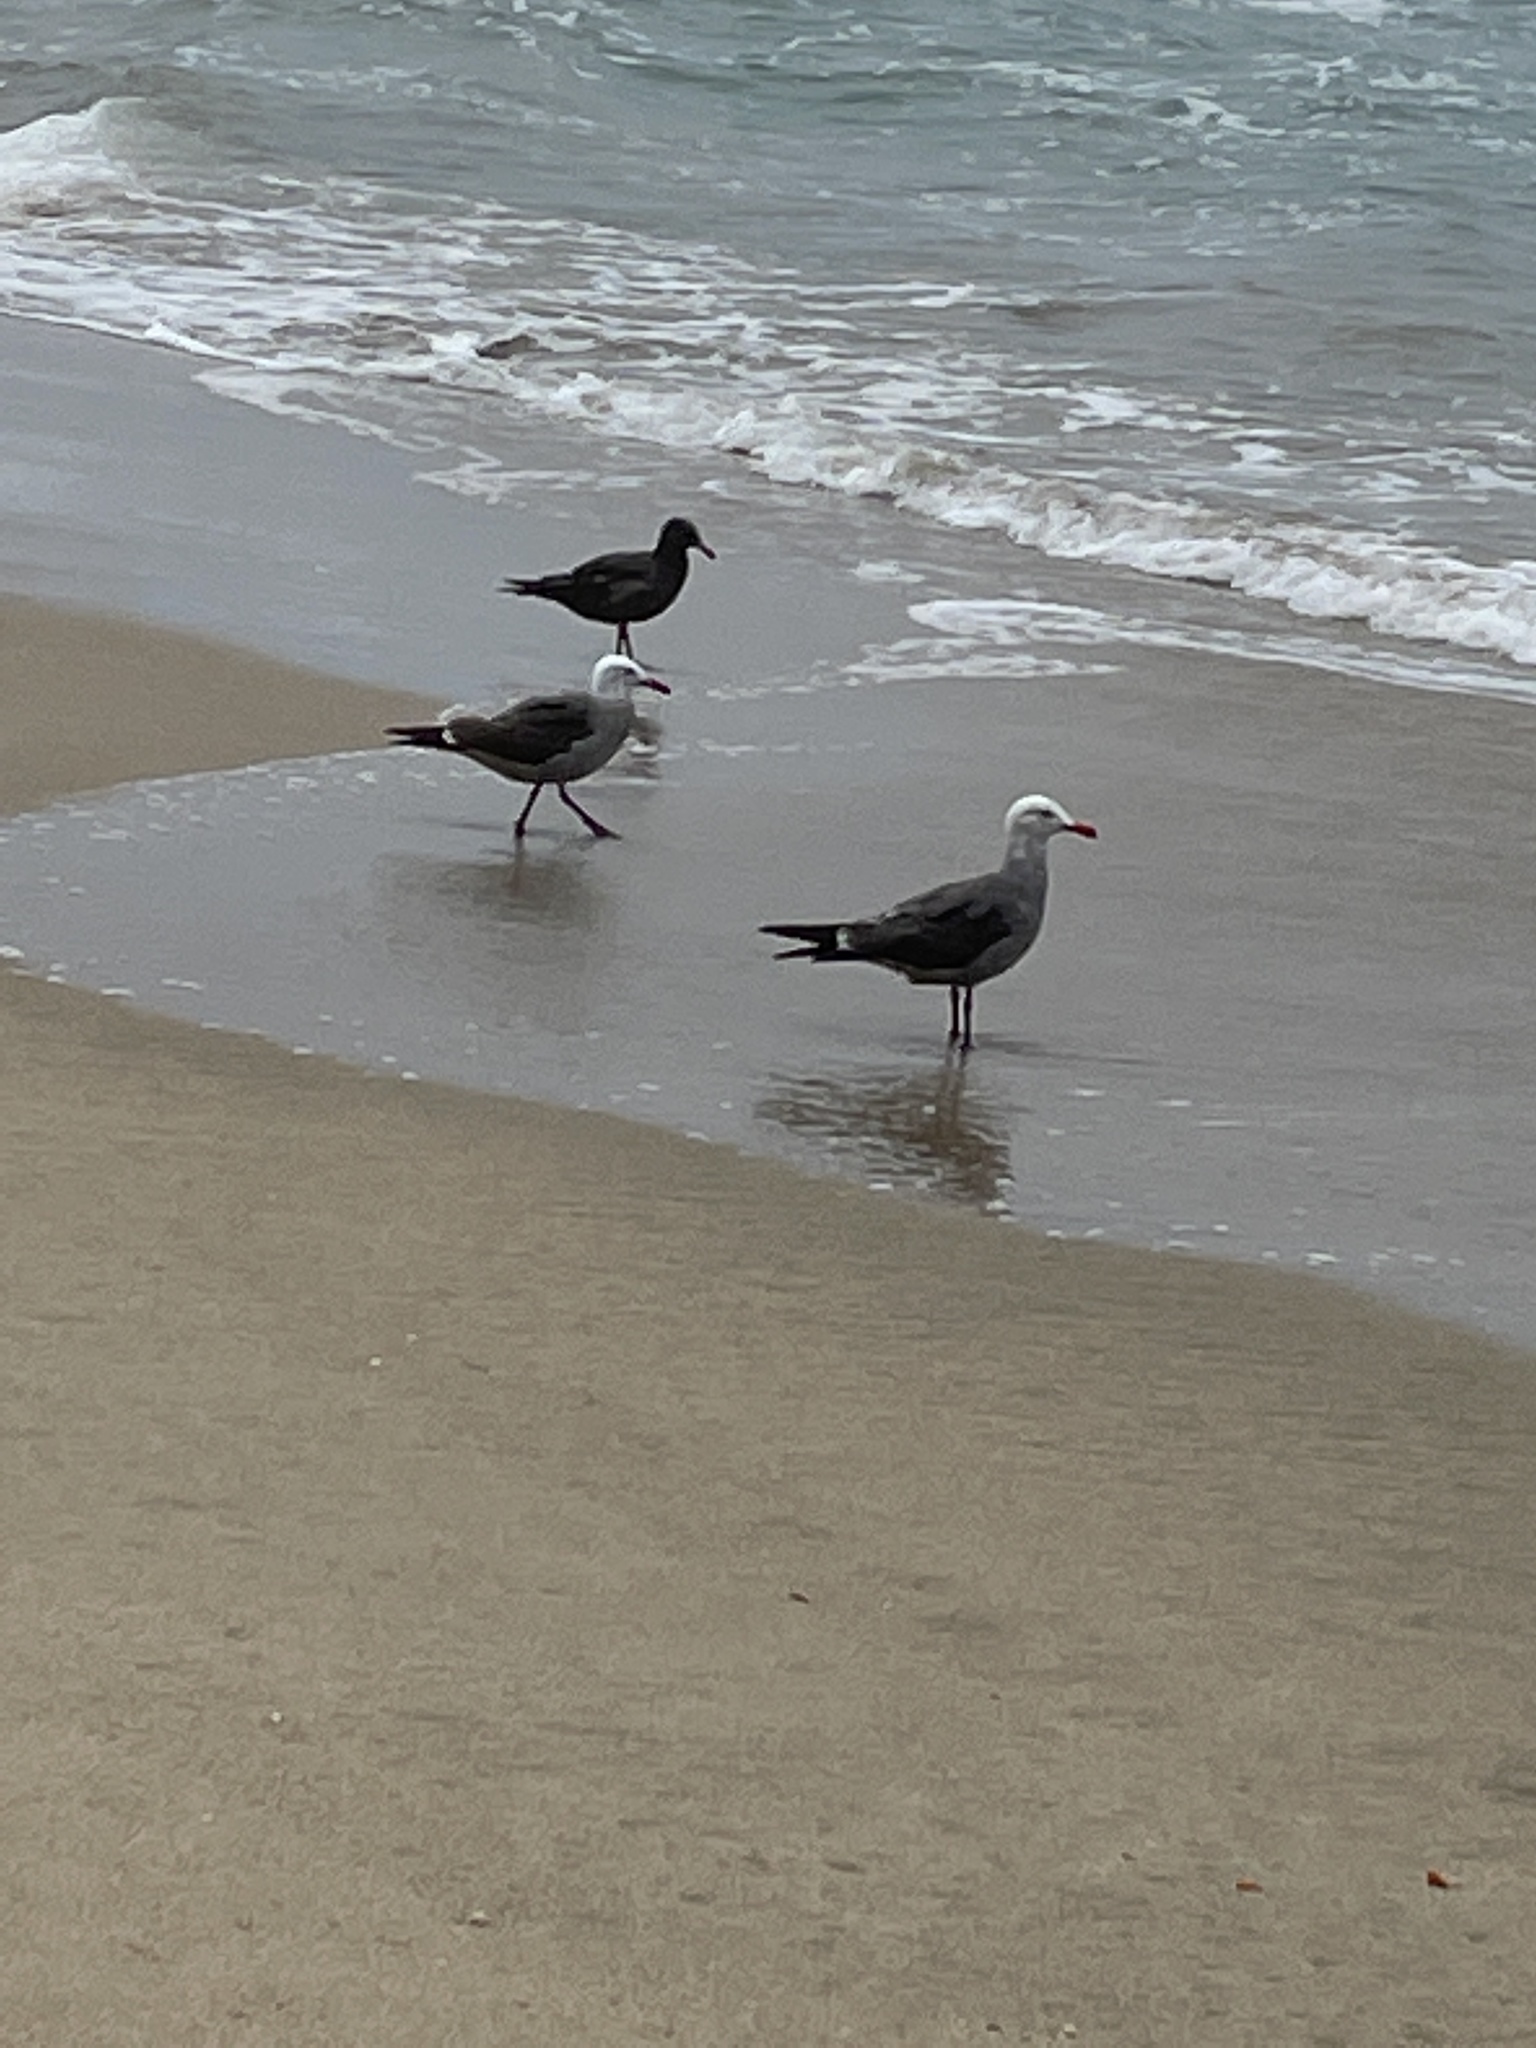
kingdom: Animalia
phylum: Chordata
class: Aves
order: Charadriiformes
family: Laridae
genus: Larus
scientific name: Larus heermanni
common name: Heermann's gull
